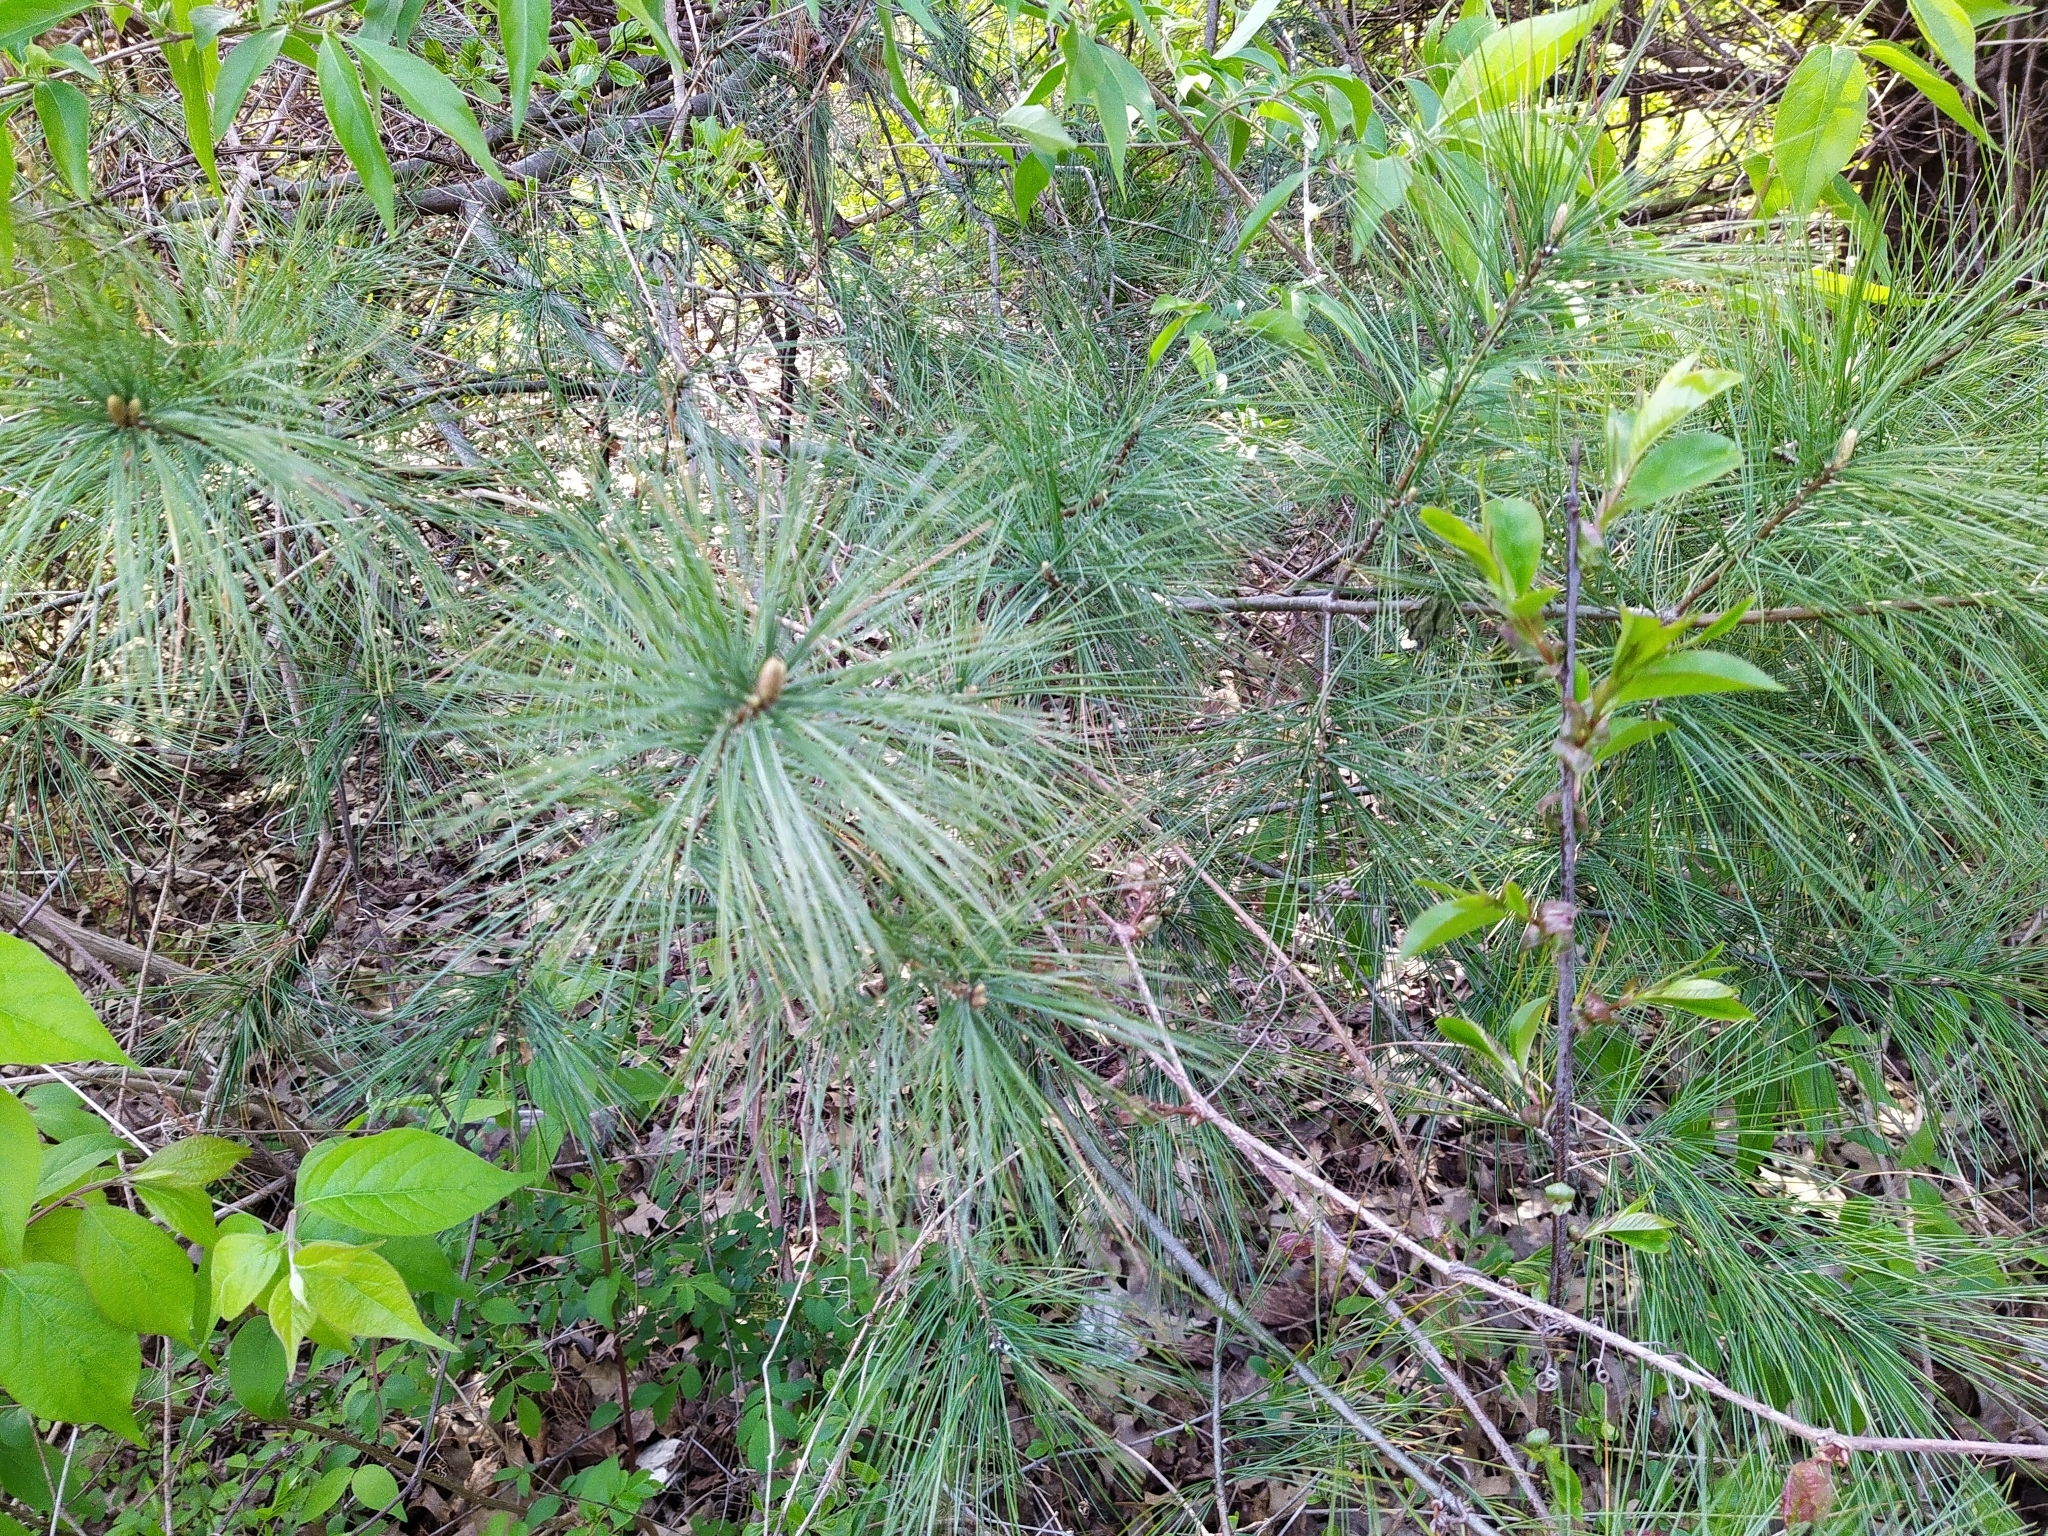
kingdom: Plantae
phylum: Tracheophyta
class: Pinopsida
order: Pinales
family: Pinaceae
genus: Pinus
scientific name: Pinus strobus
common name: Weymouth pine
